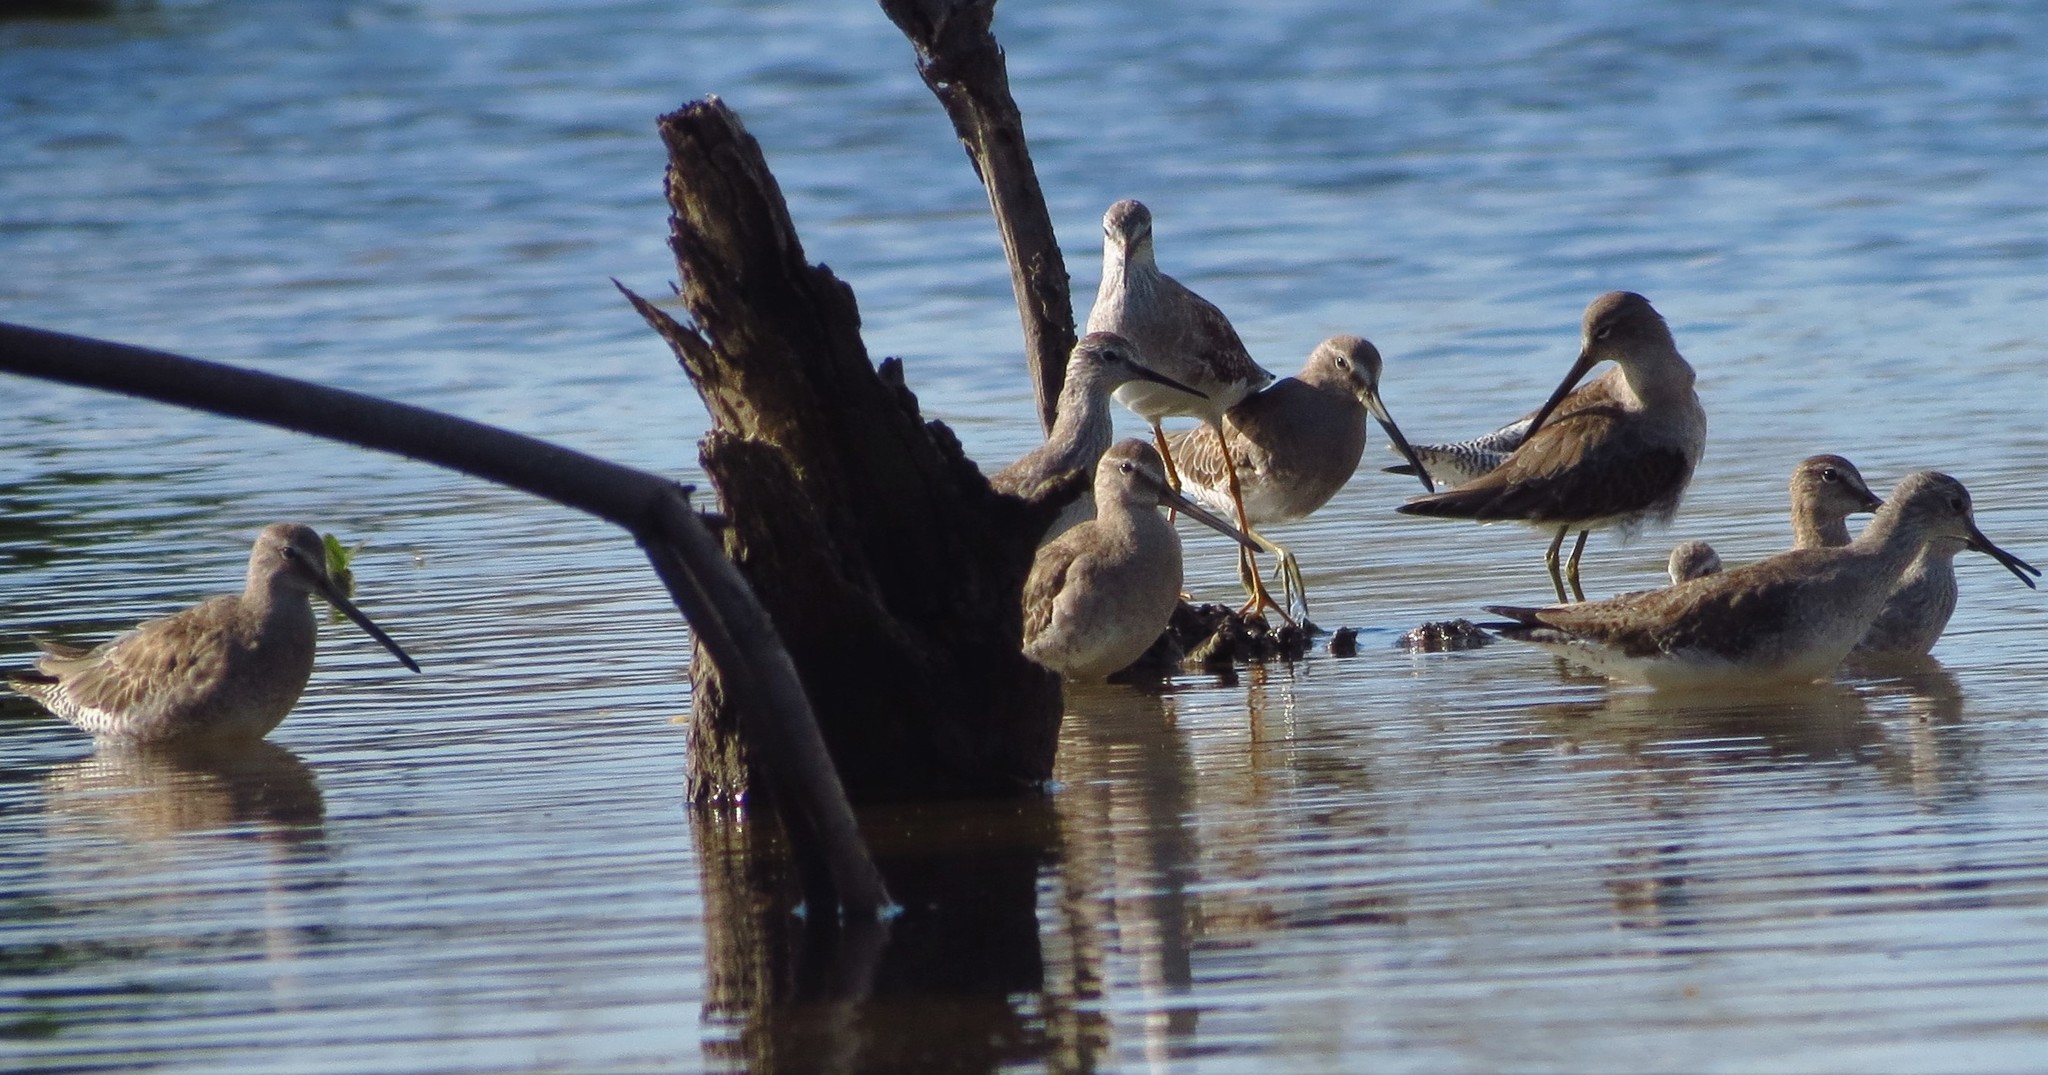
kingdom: Animalia
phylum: Chordata
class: Aves
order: Charadriiformes
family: Scolopacidae
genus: Limnodromus
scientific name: Limnodromus griseus
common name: Short-billed dowitcher
